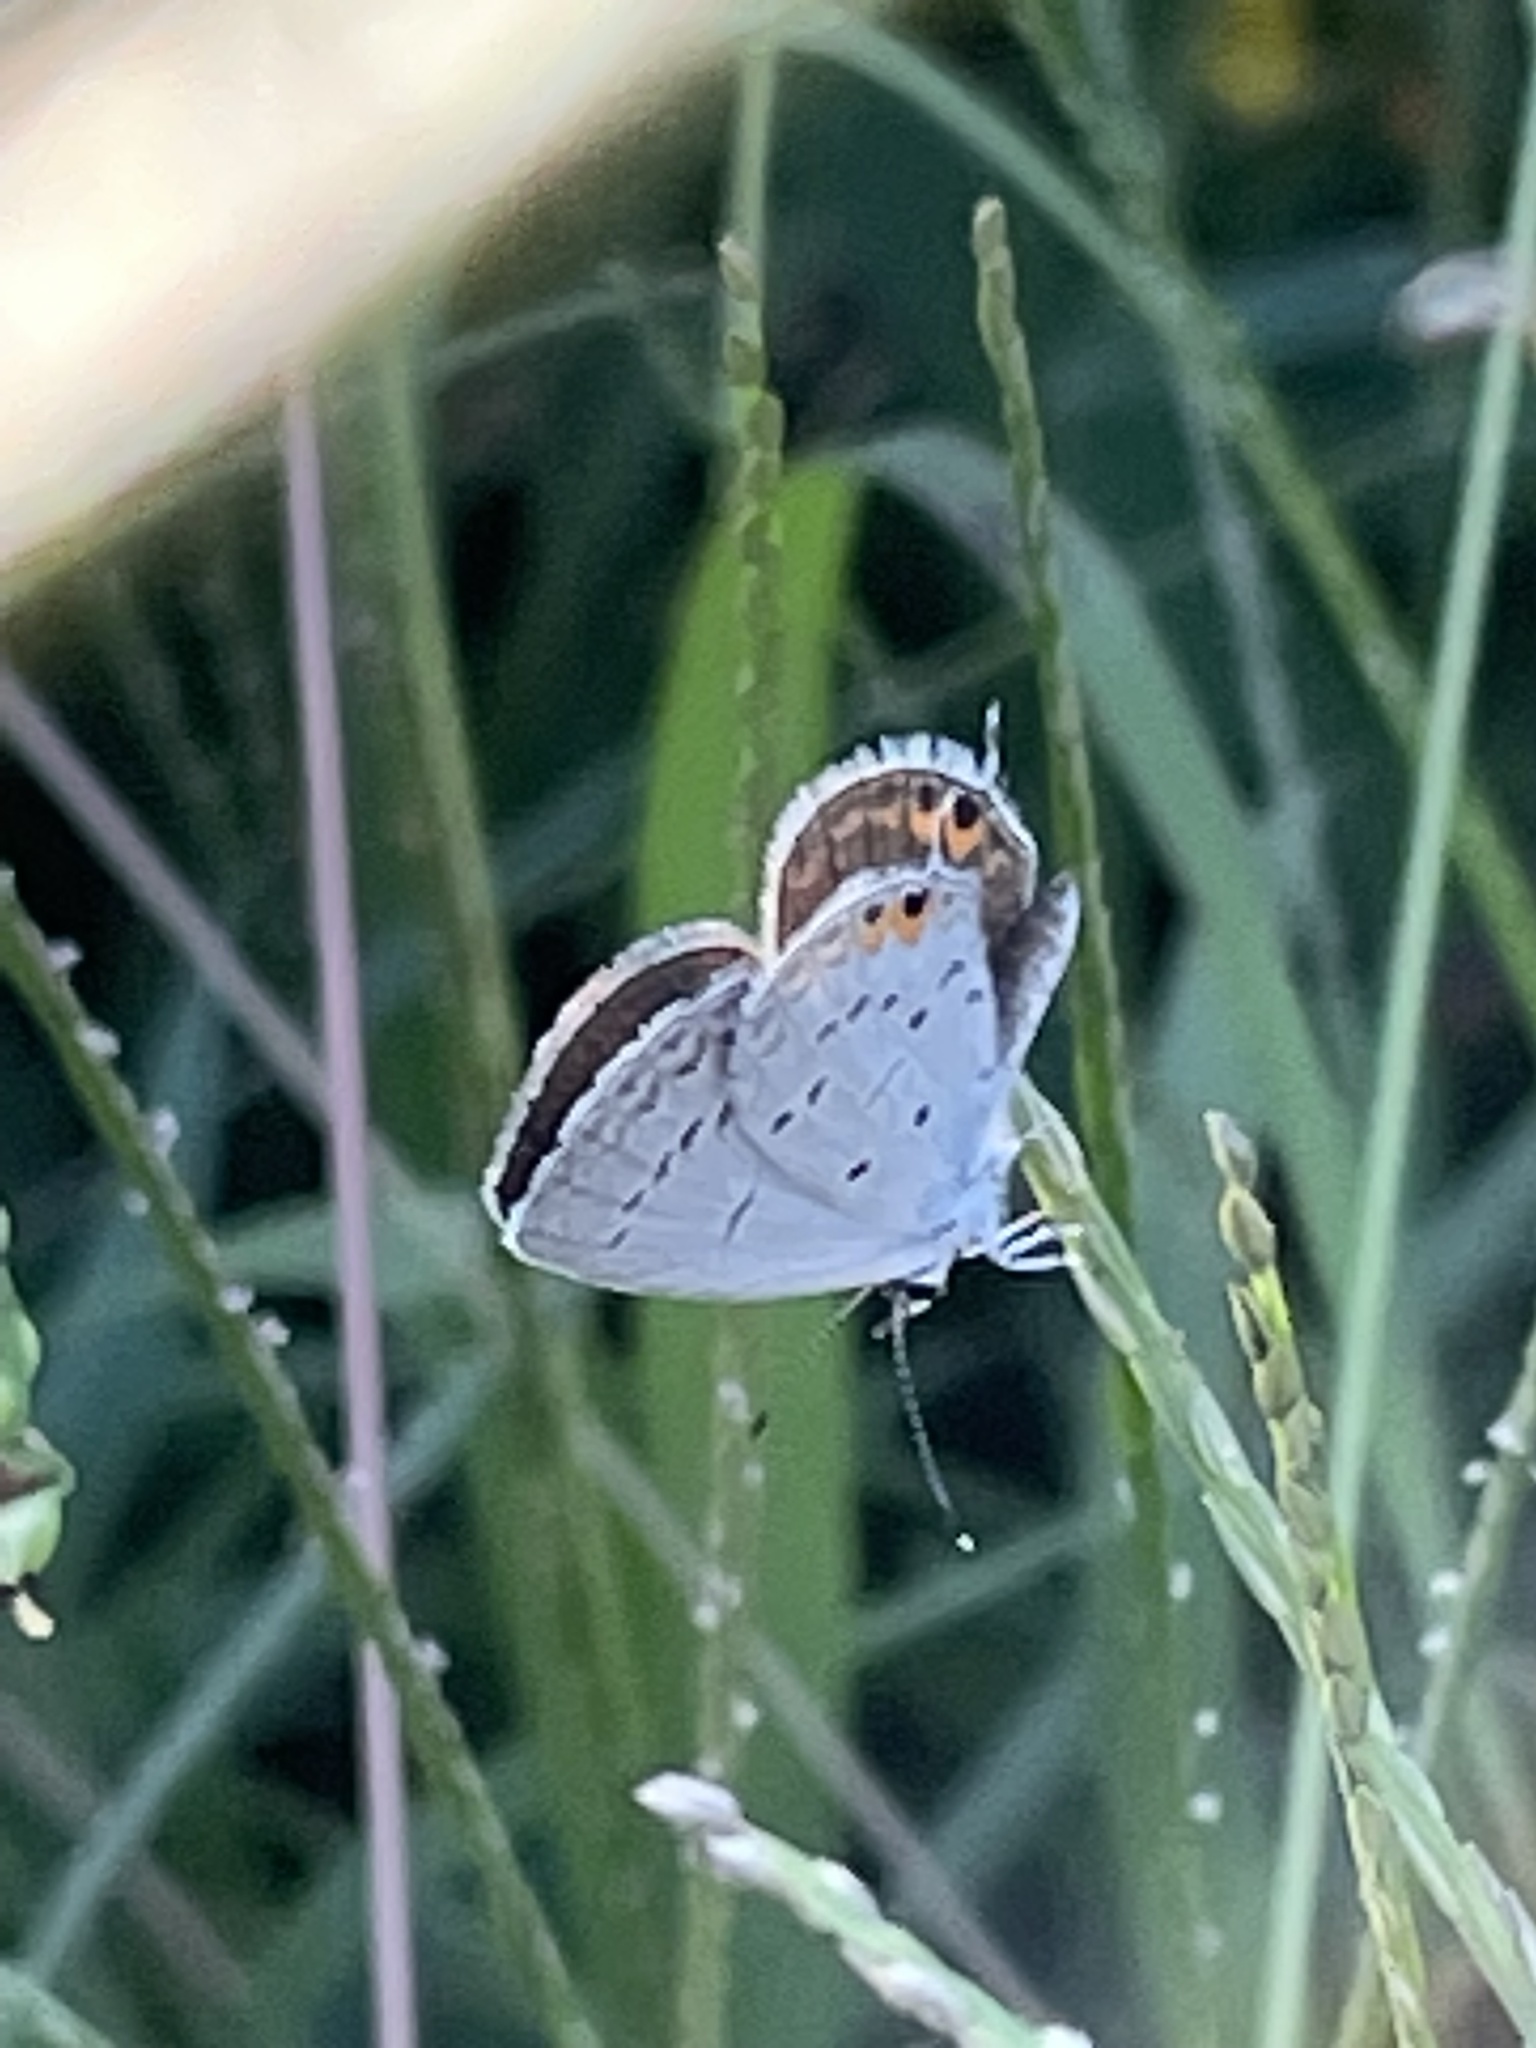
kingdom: Animalia
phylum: Arthropoda
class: Insecta
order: Lepidoptera
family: Lycaenidae
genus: Elkalyce
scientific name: Elkalyce comyntas
